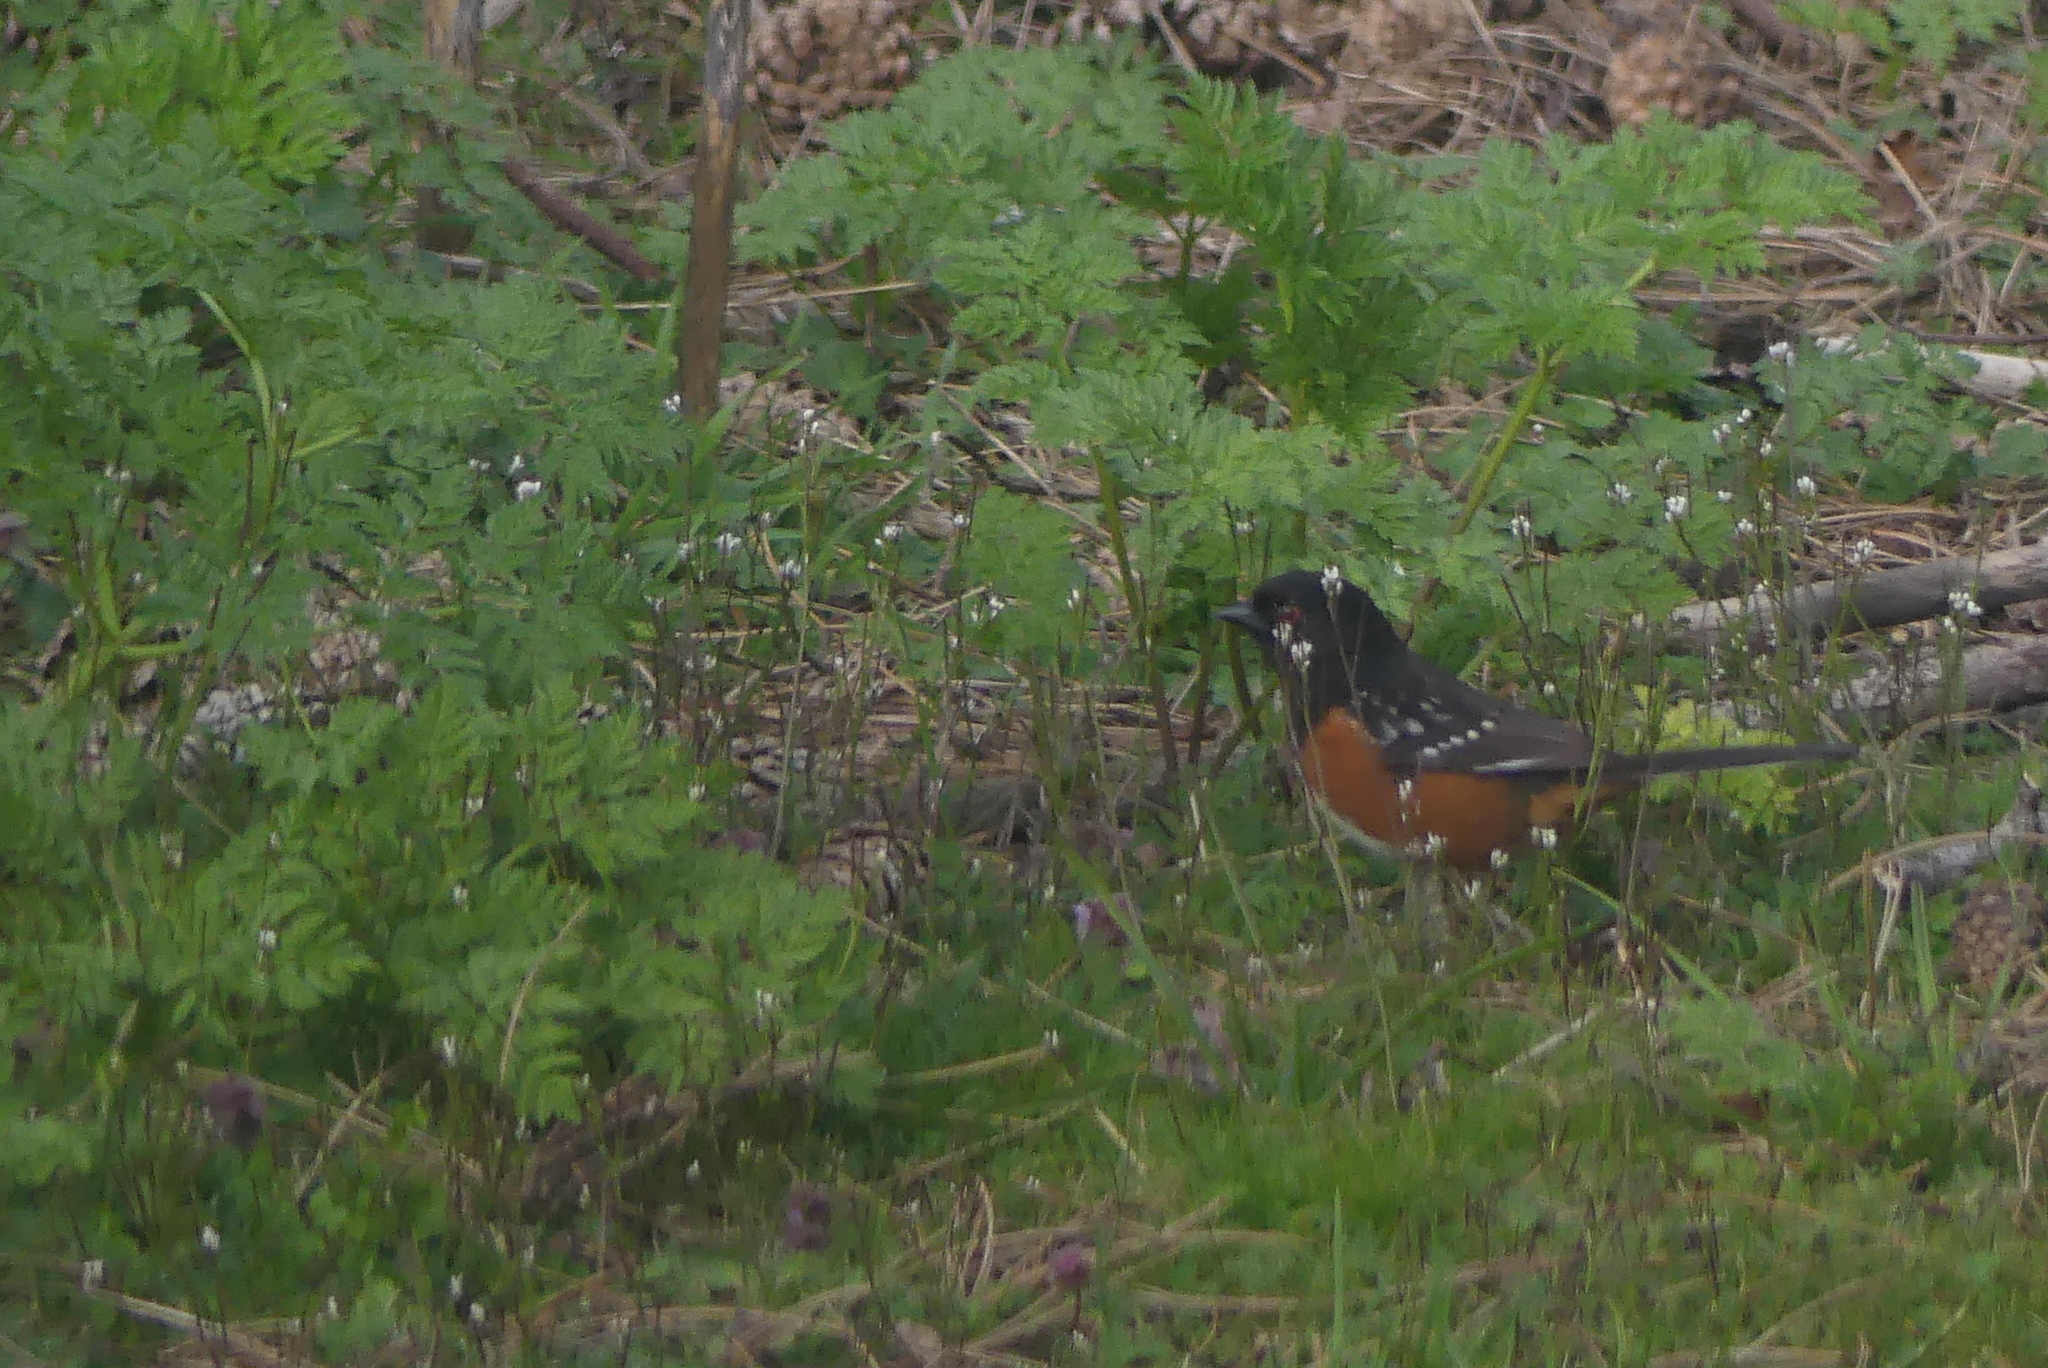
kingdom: Animalia
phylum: Chordata
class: Aves
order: Passeriformes
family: Passerellidae
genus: Pipilo
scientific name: Pipilo maculatus
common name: Spotted towhee
